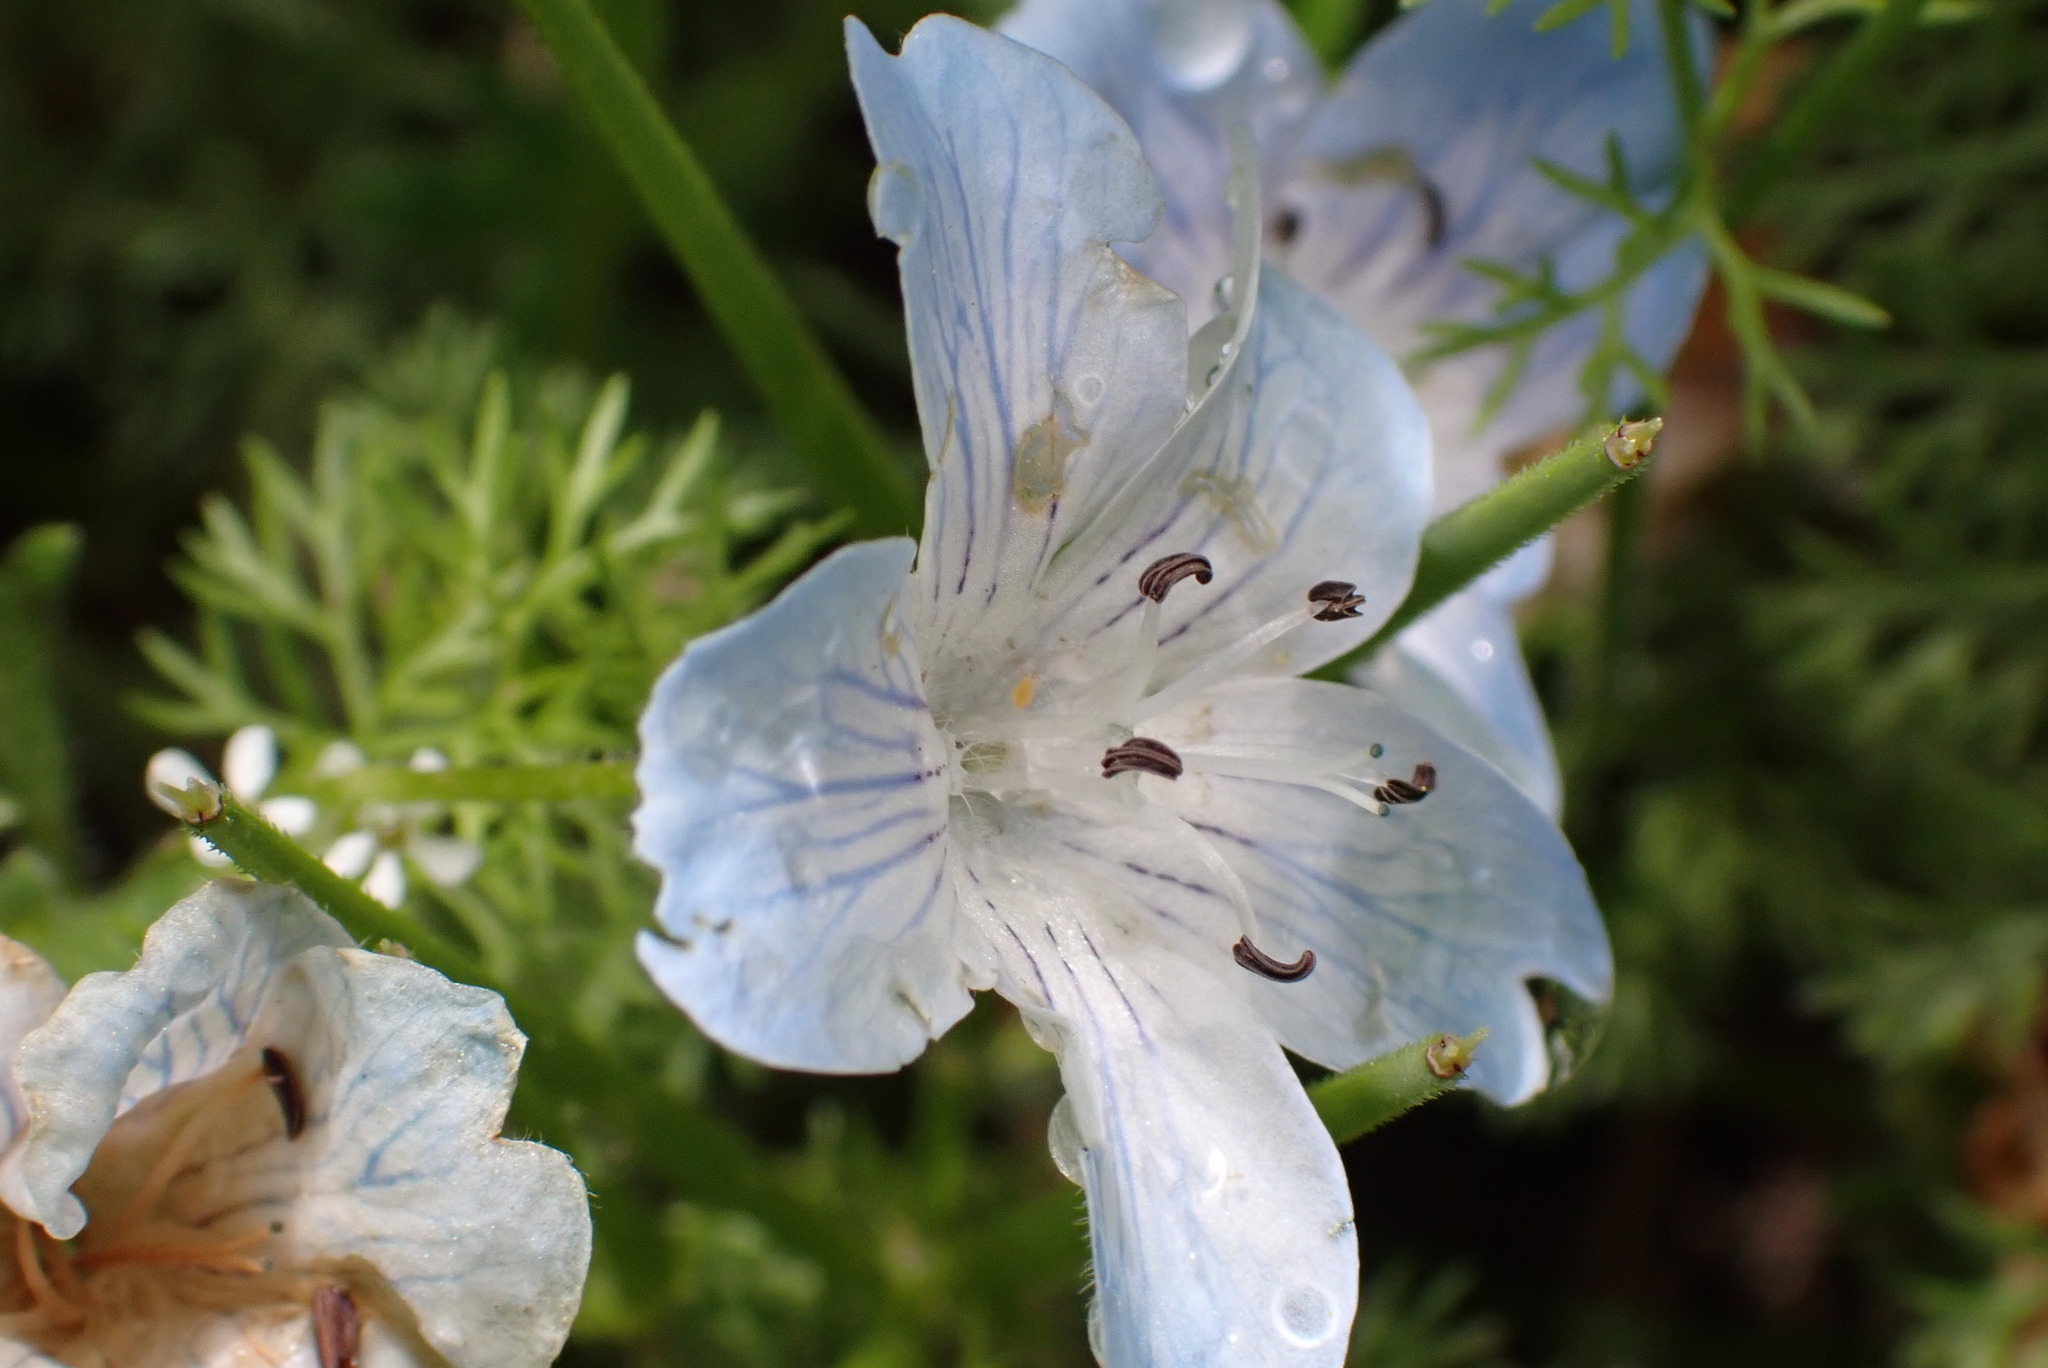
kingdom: Plantae
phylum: Tracheophyta
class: Magnoliopsida
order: Boraginales
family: Hydrophyllaceae
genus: Nemophila
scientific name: Nemophila menziesii
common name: Baby's-blue-eyes
